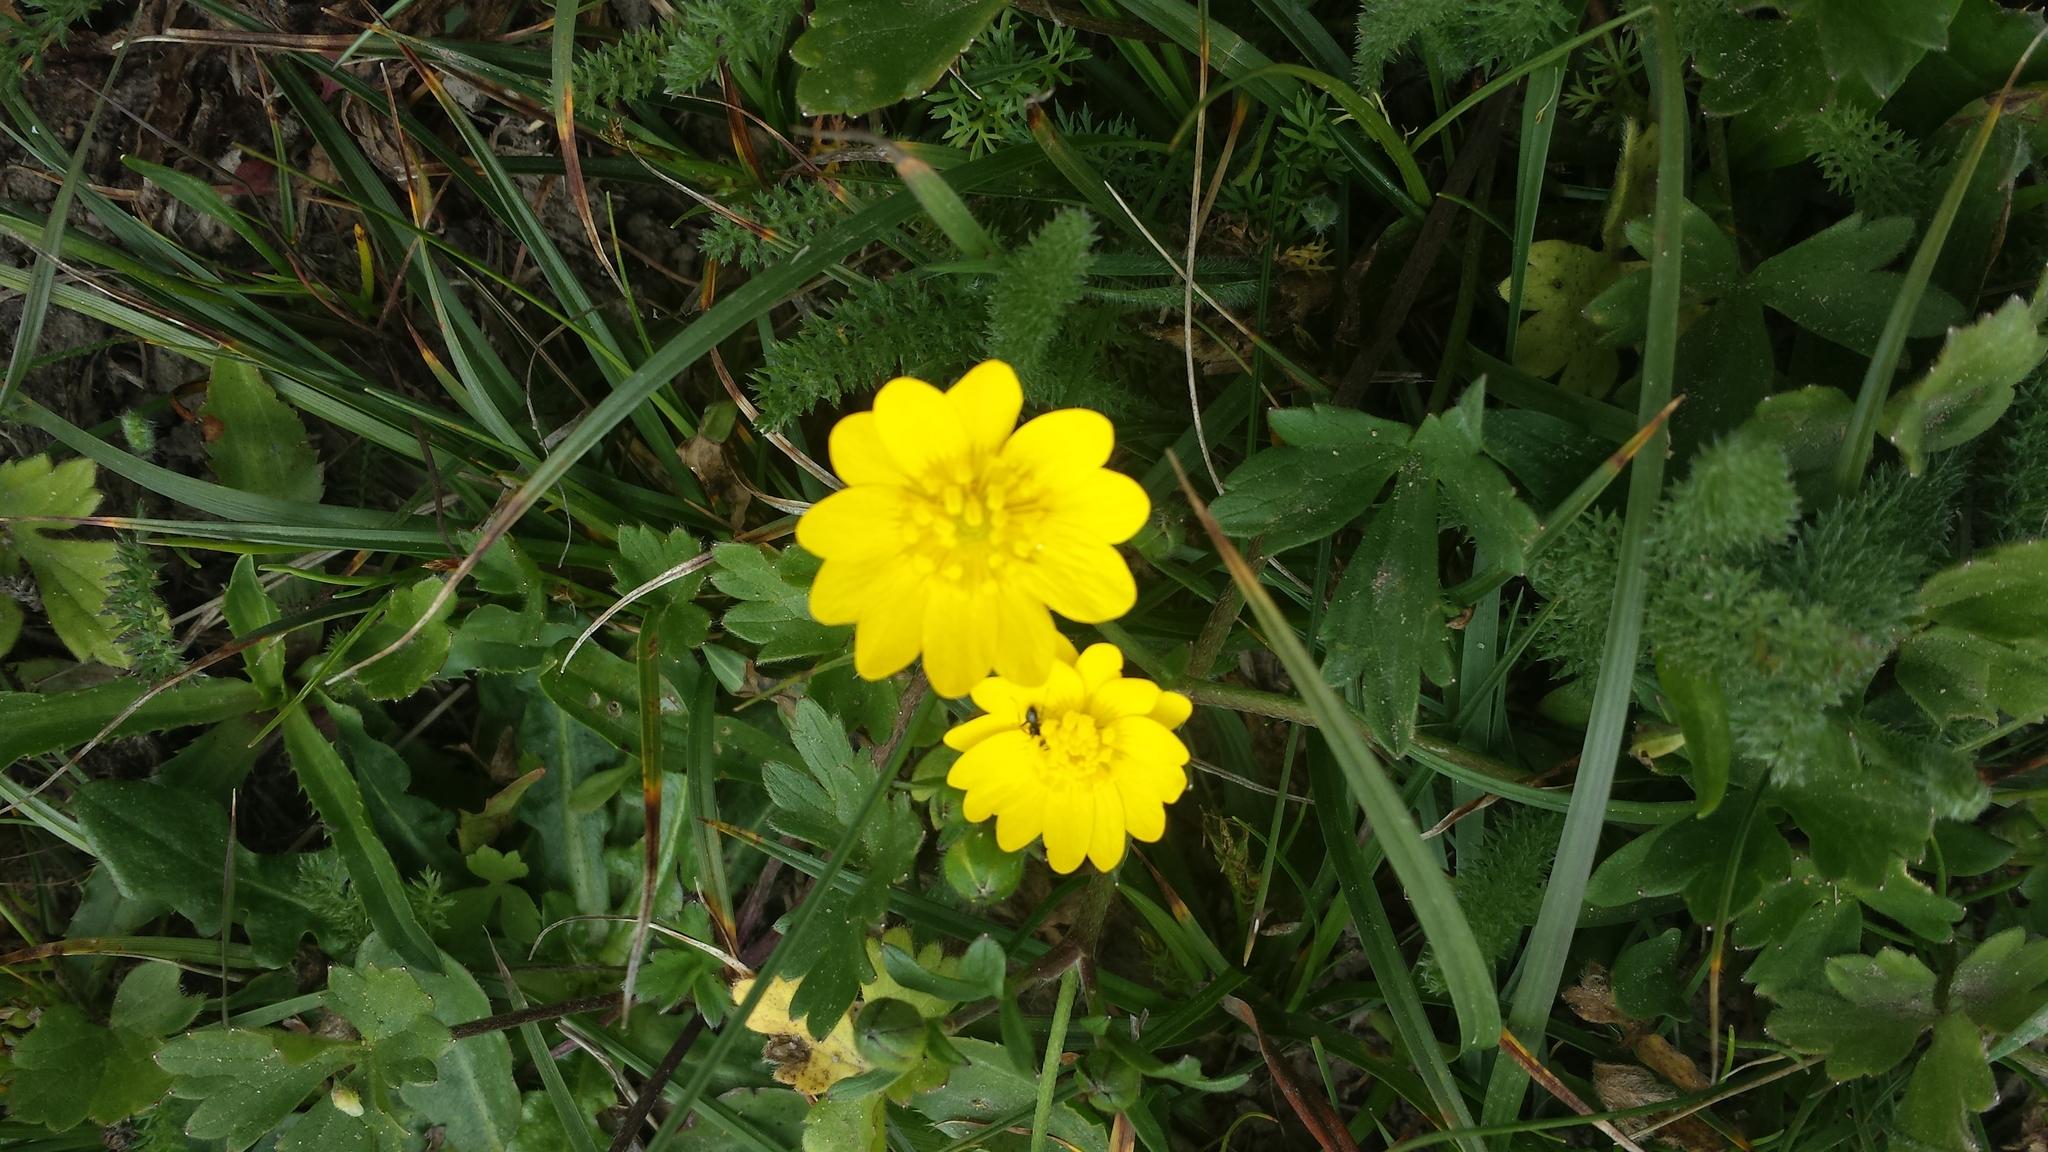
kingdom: Plantae
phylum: Tracheophyta
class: Magnoliopsida
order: Ranunculales
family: Ranunculaceae
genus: Ranunculus
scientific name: Ranunculus californicus
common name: California buttercup
